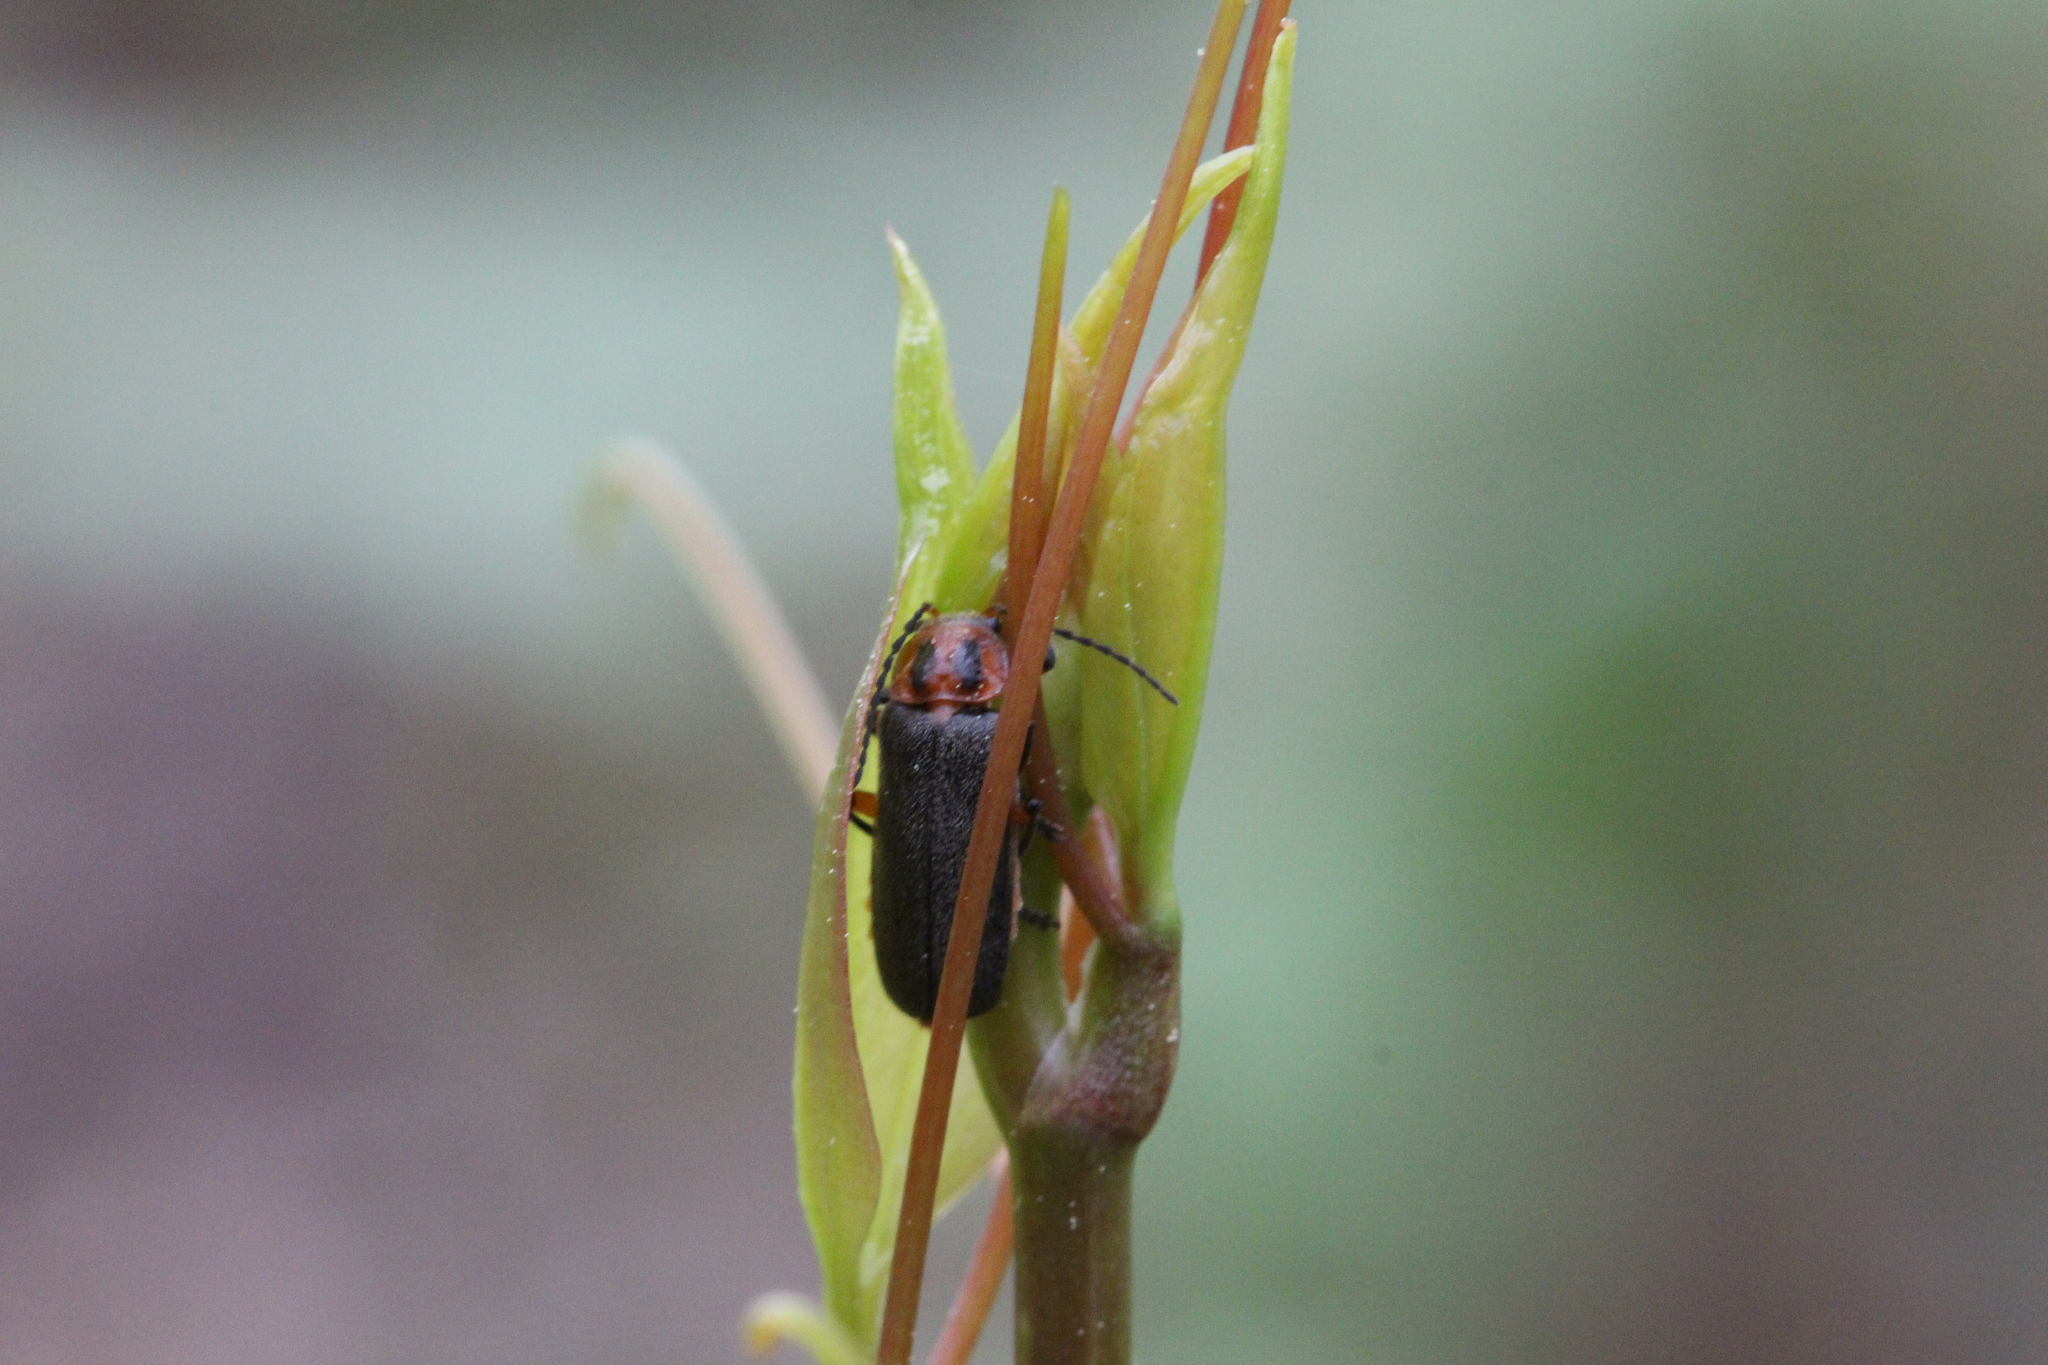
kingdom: Animalia
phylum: Arthropoda
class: Insecta
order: Coleoptera
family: Cantharidae
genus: Atalantycha
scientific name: Atalantycha bilineata
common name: Two-lined leatherwing
